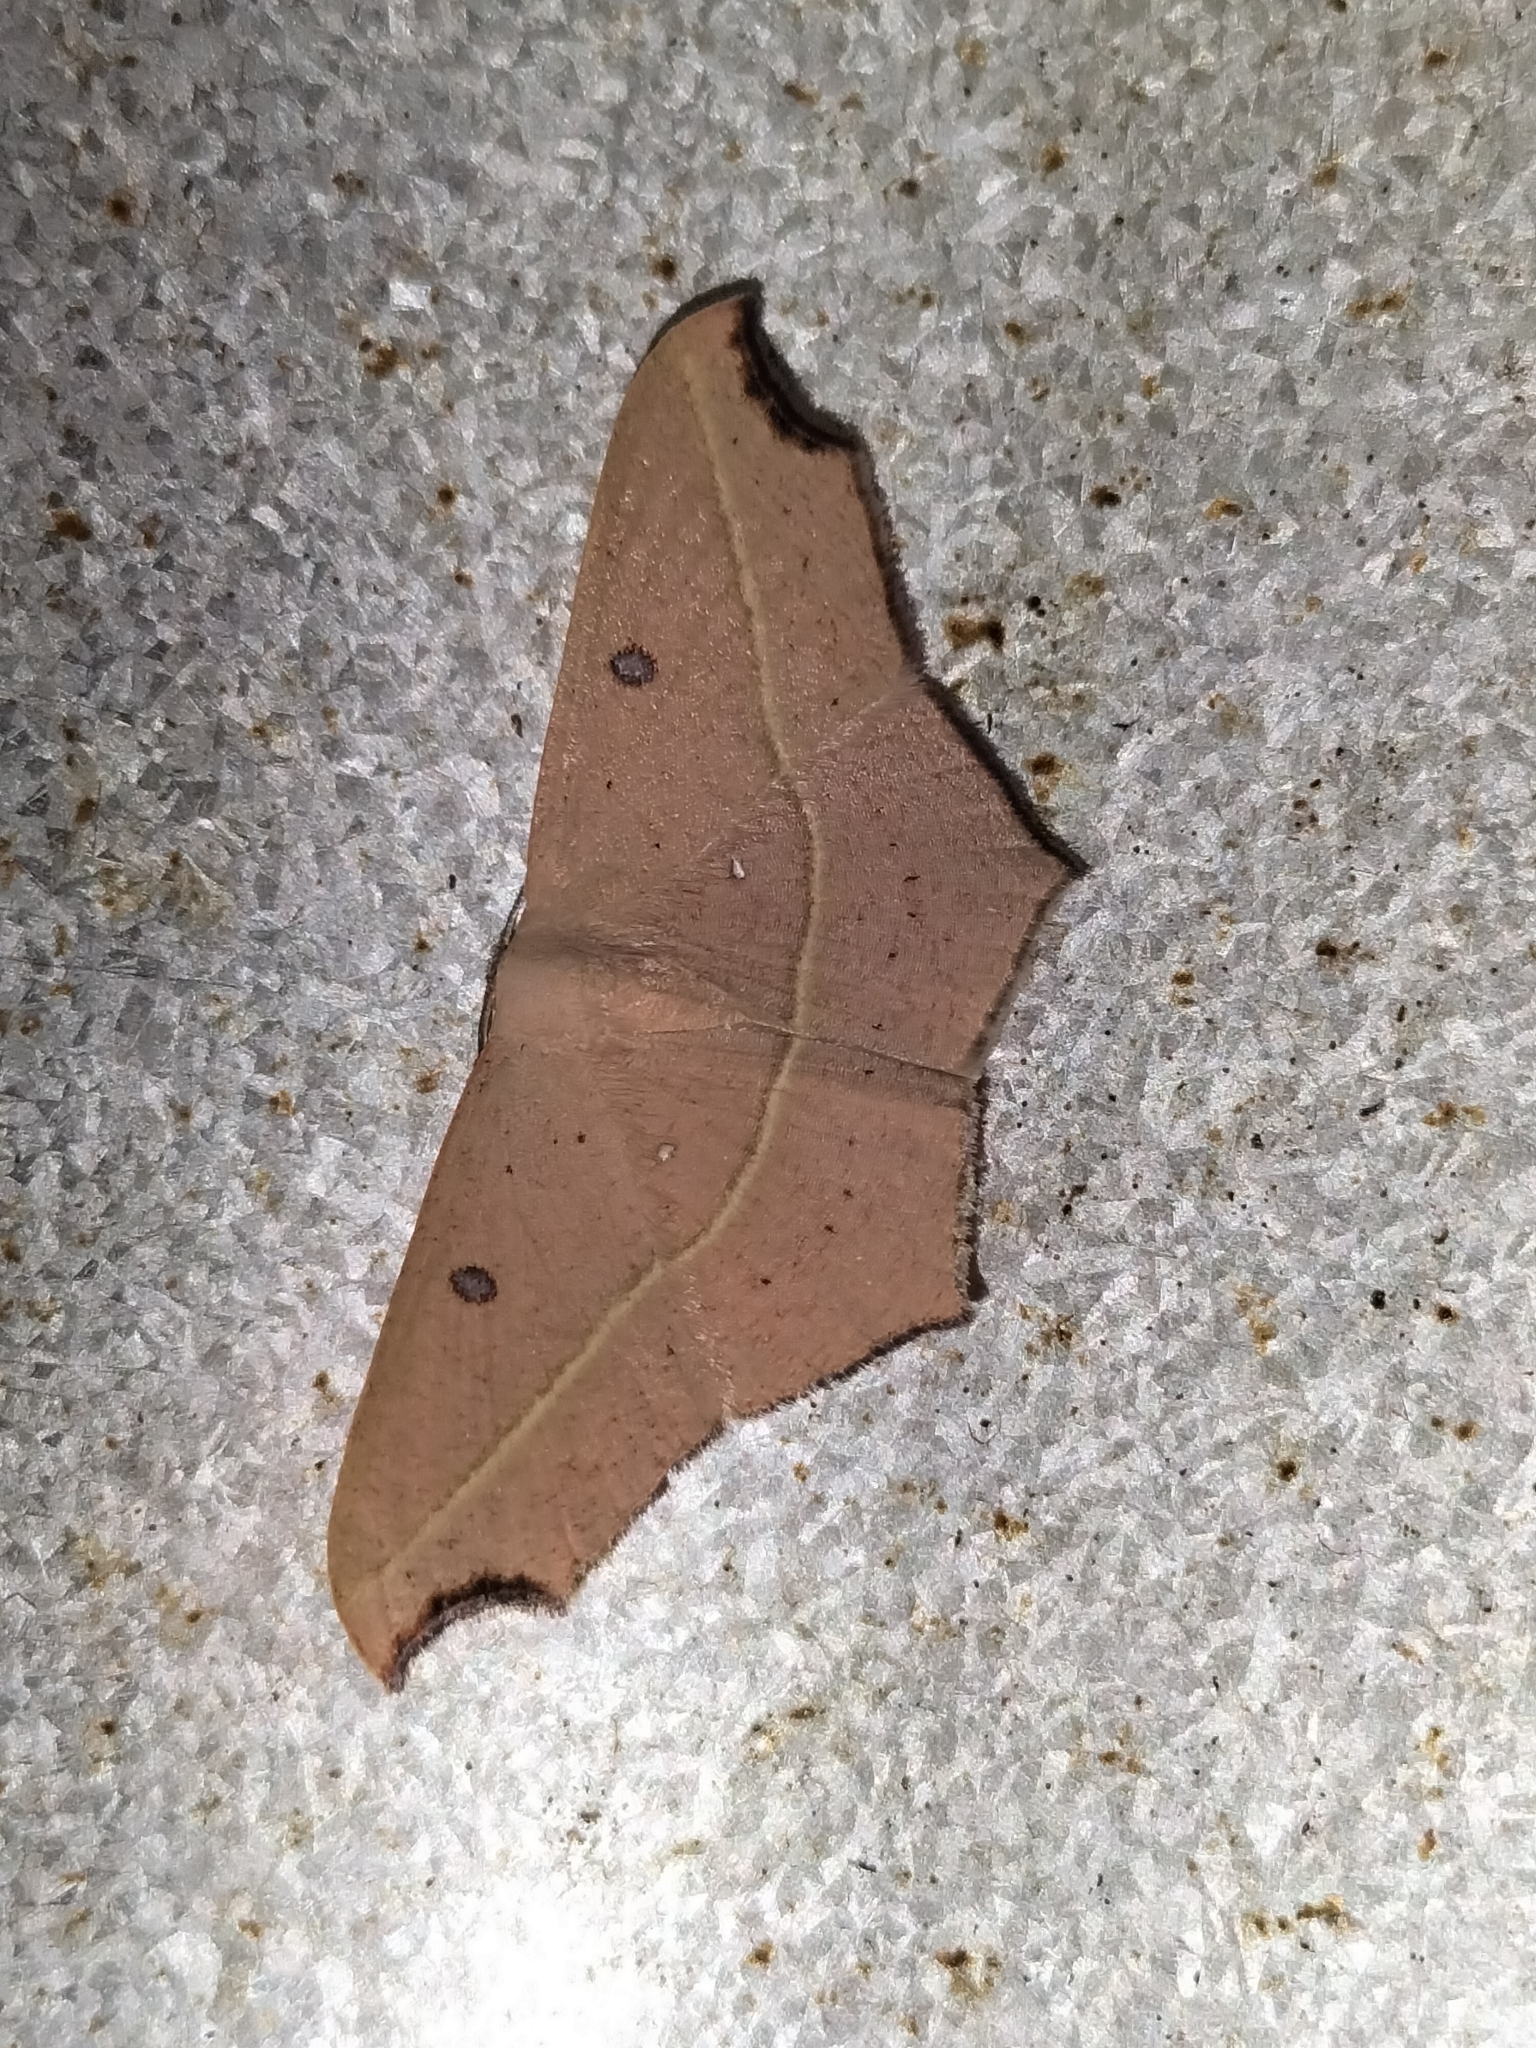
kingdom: Animalia
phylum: Arthropoda
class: Insecta
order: Lepidoptera
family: Geometridae
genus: Traminda
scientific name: Traminda aventiaria
